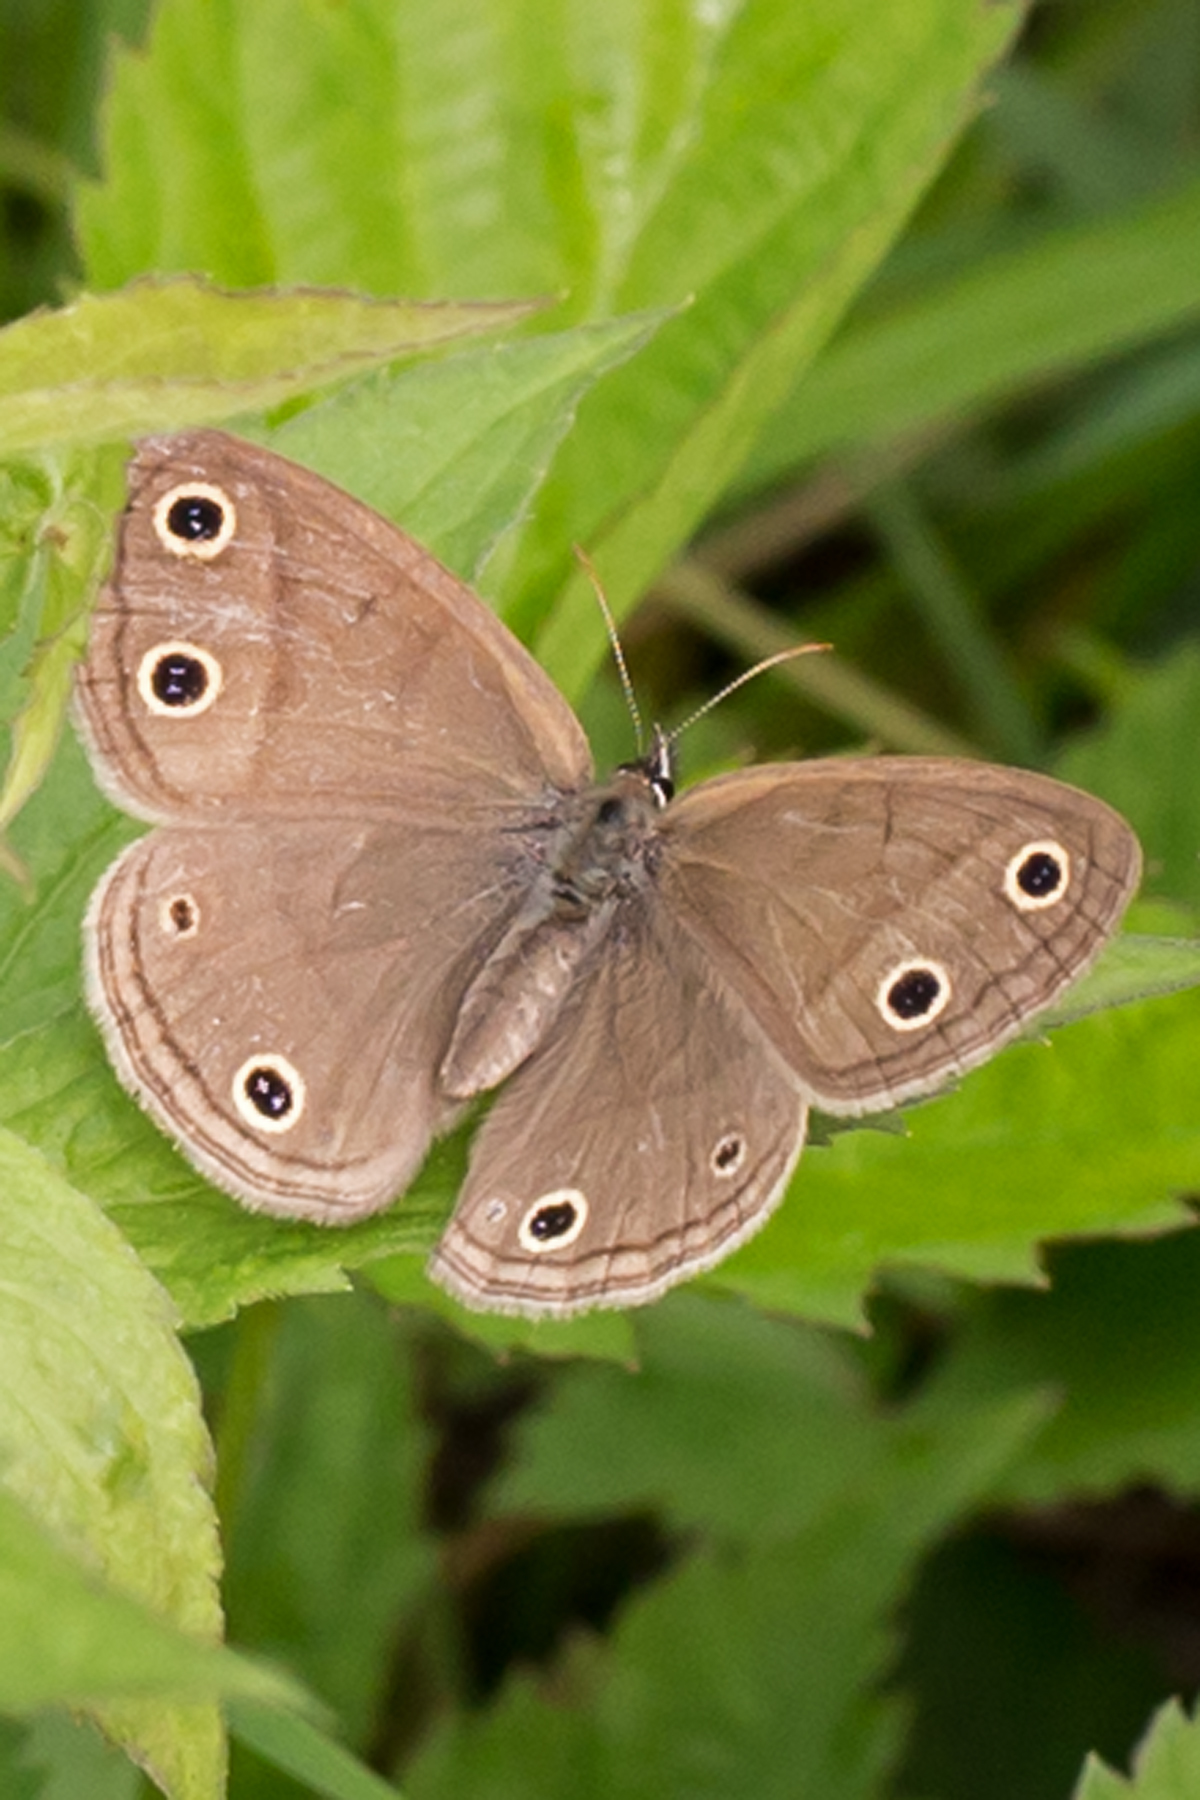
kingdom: Animalia
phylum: Arthropoda
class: Insecta
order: Lepidoptera
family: Nymphalidae
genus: Euptychia
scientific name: Euptychia cymela
